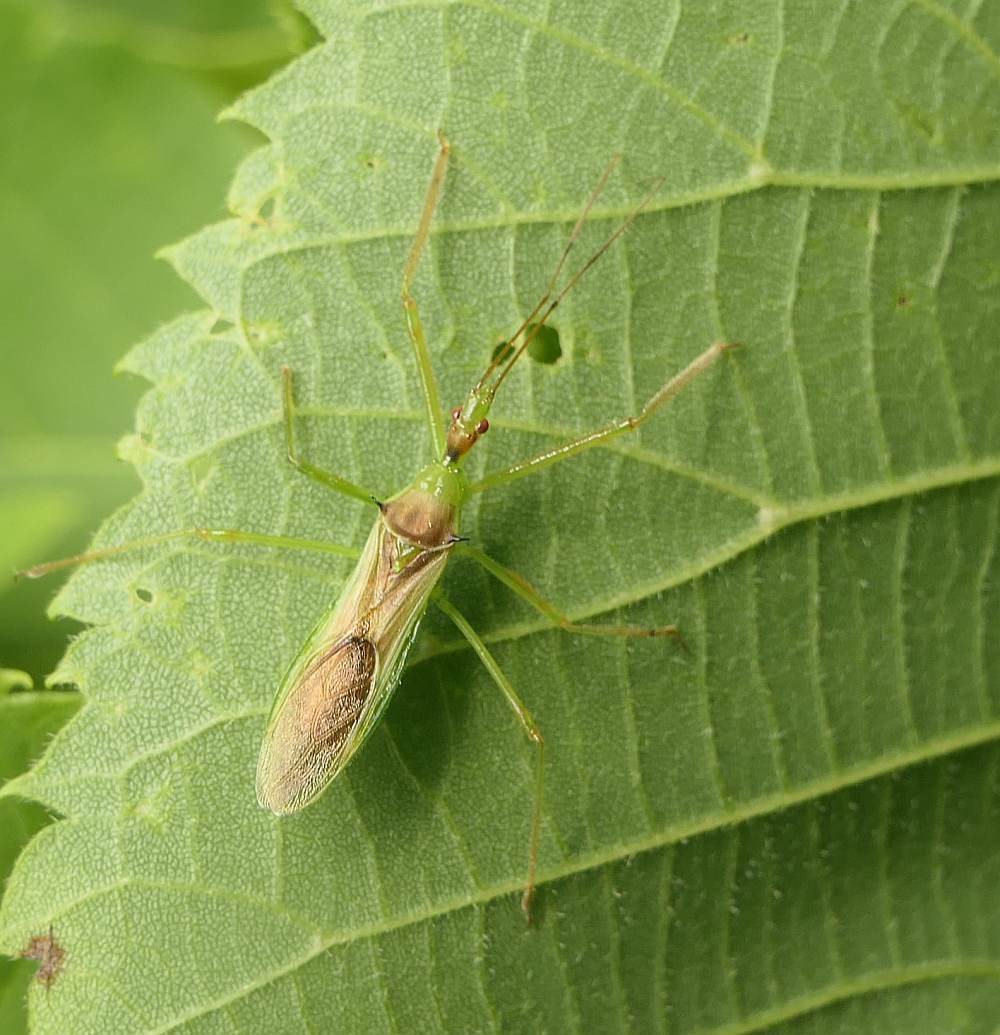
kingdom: Animalia
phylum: Arthropoda
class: Insecta
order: Hemiptera
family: Reduviidae
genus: Zelus
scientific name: Zelus luridus
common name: Pale green assassin bug
